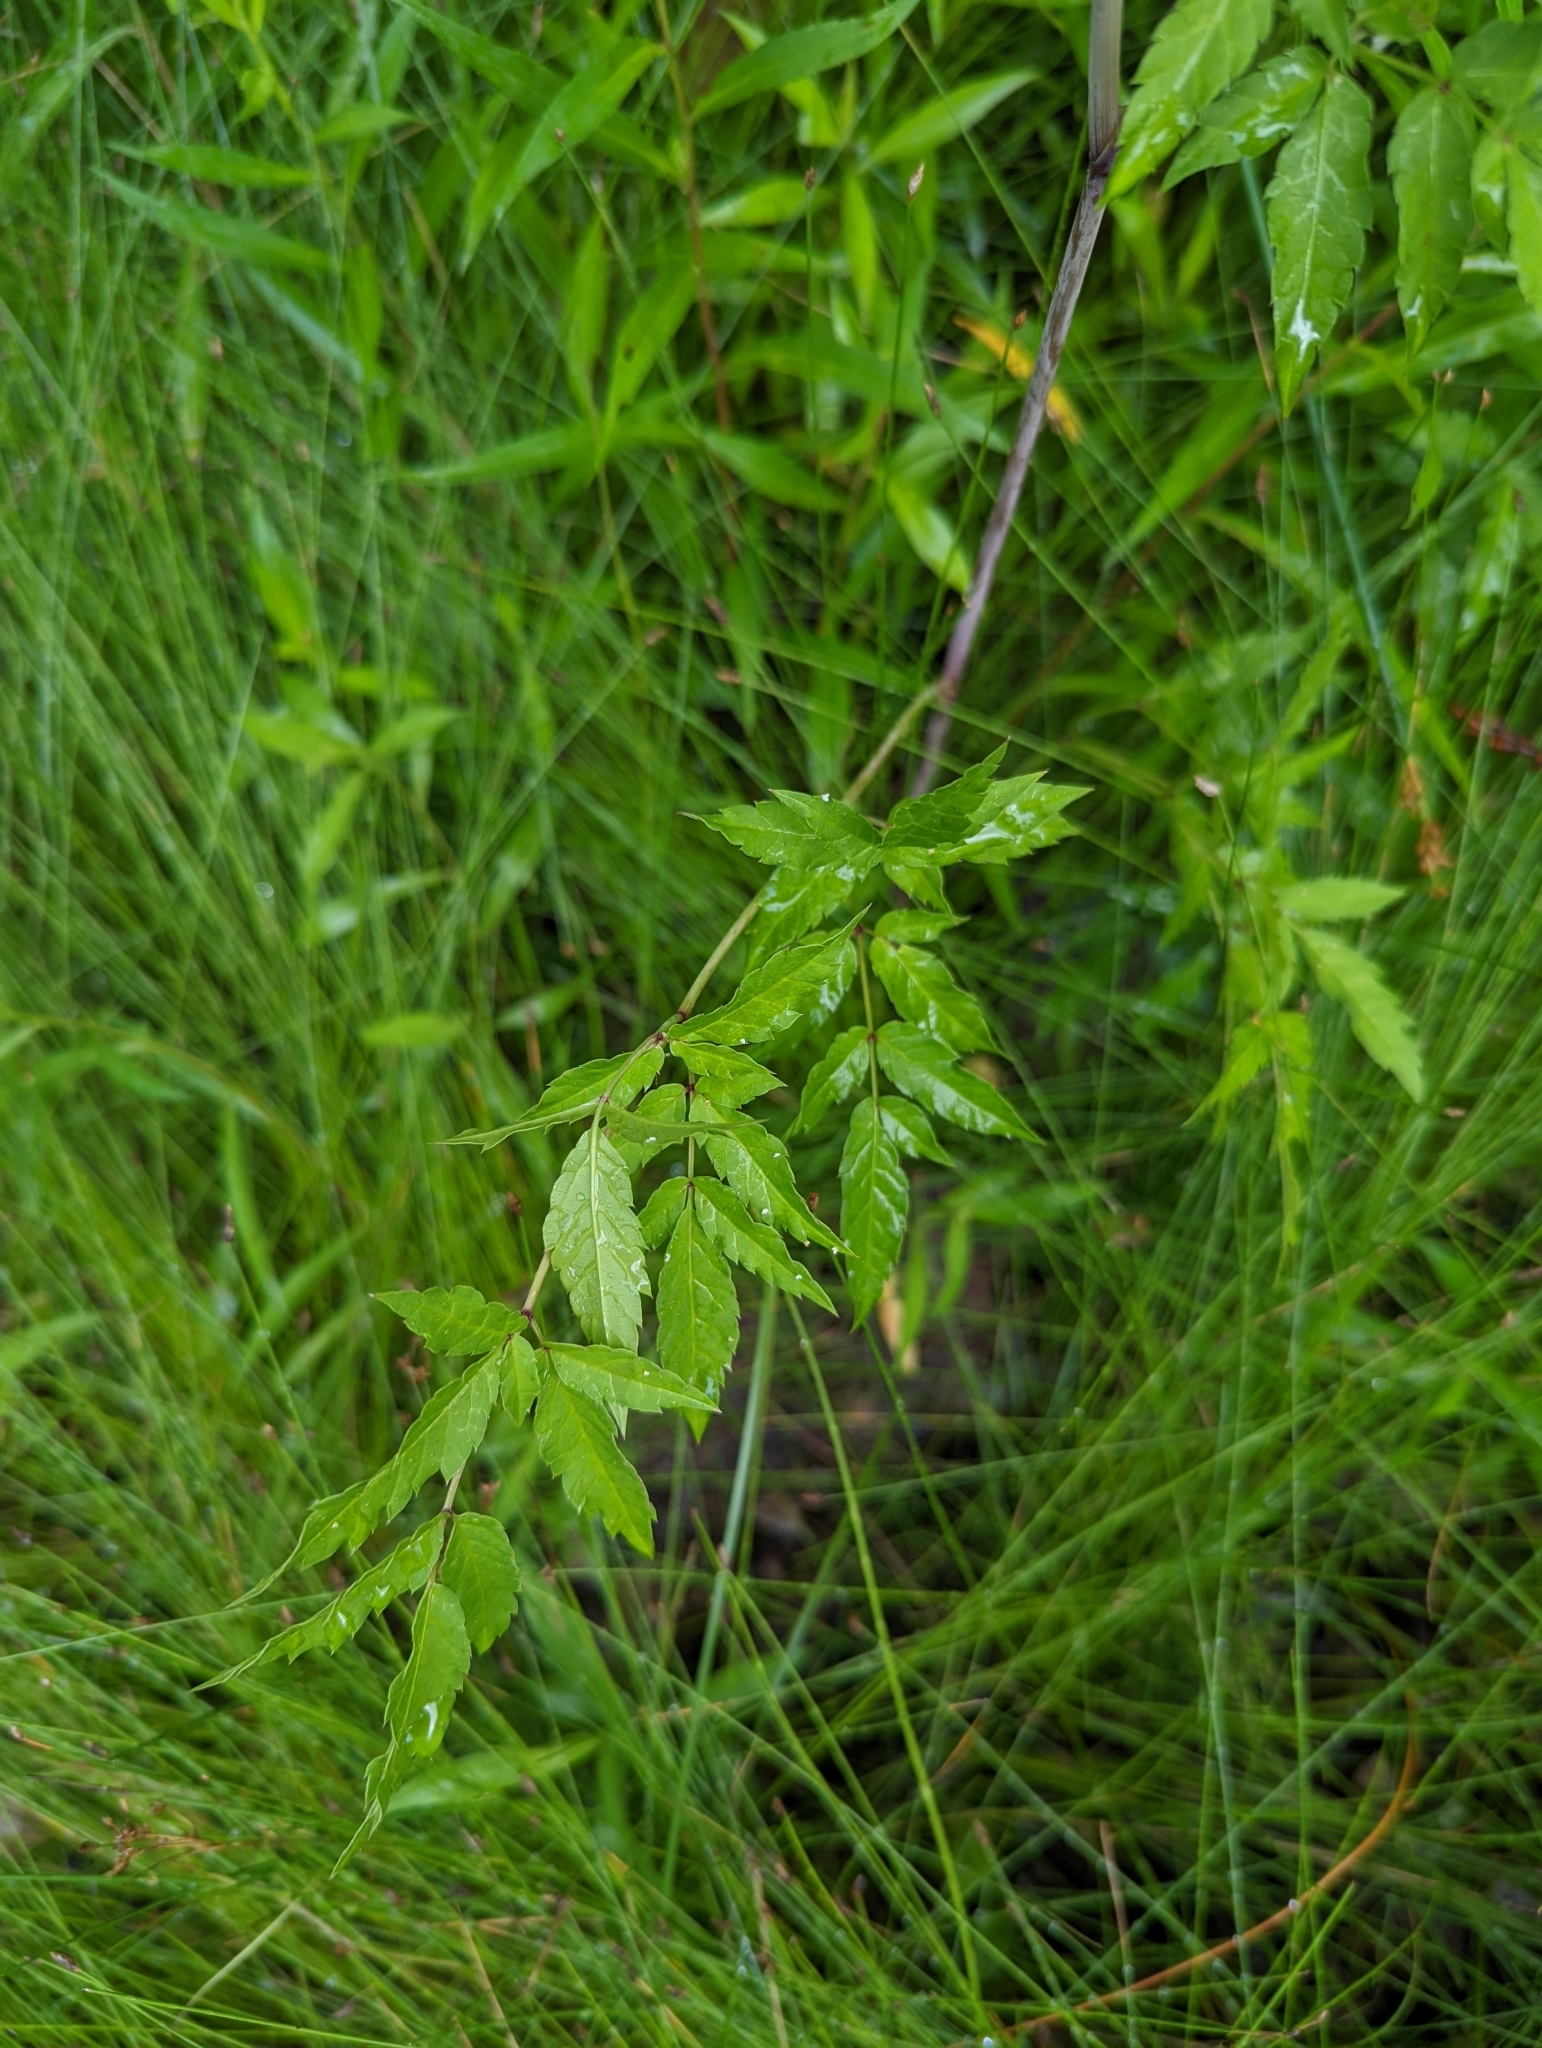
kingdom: Plantae
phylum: Tracheophyta
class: Magnoliopsida
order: Apiales
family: Apiaceae
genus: Cicuta
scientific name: Cicuta maculata
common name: Spotted cowbane
